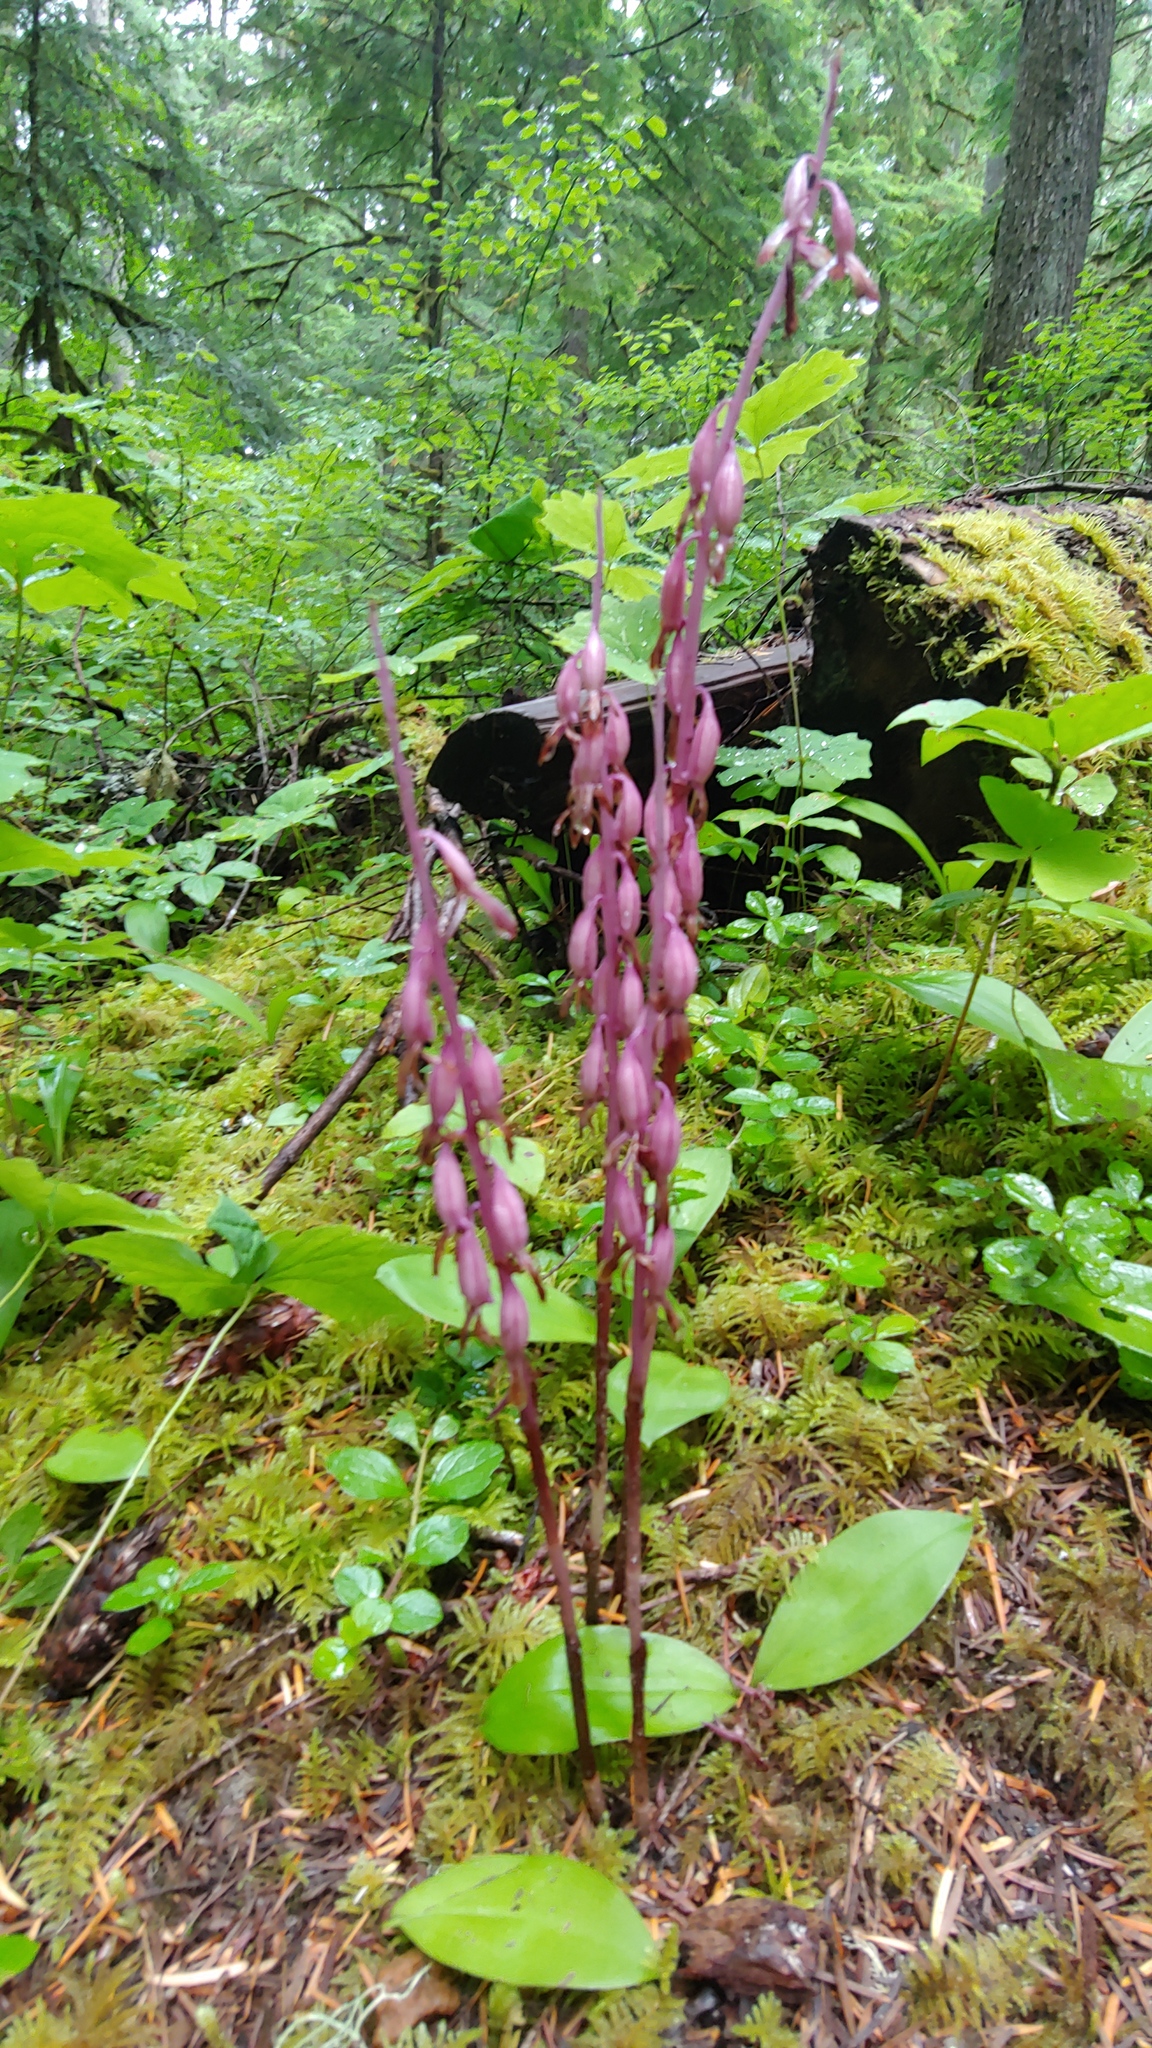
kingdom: Plantae
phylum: Tracheophyta
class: Liliopsida
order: Asparagales
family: Orchidaceae
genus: Corallorhiza
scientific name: Corallorhiza mertensiana
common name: Pacific coralroot
